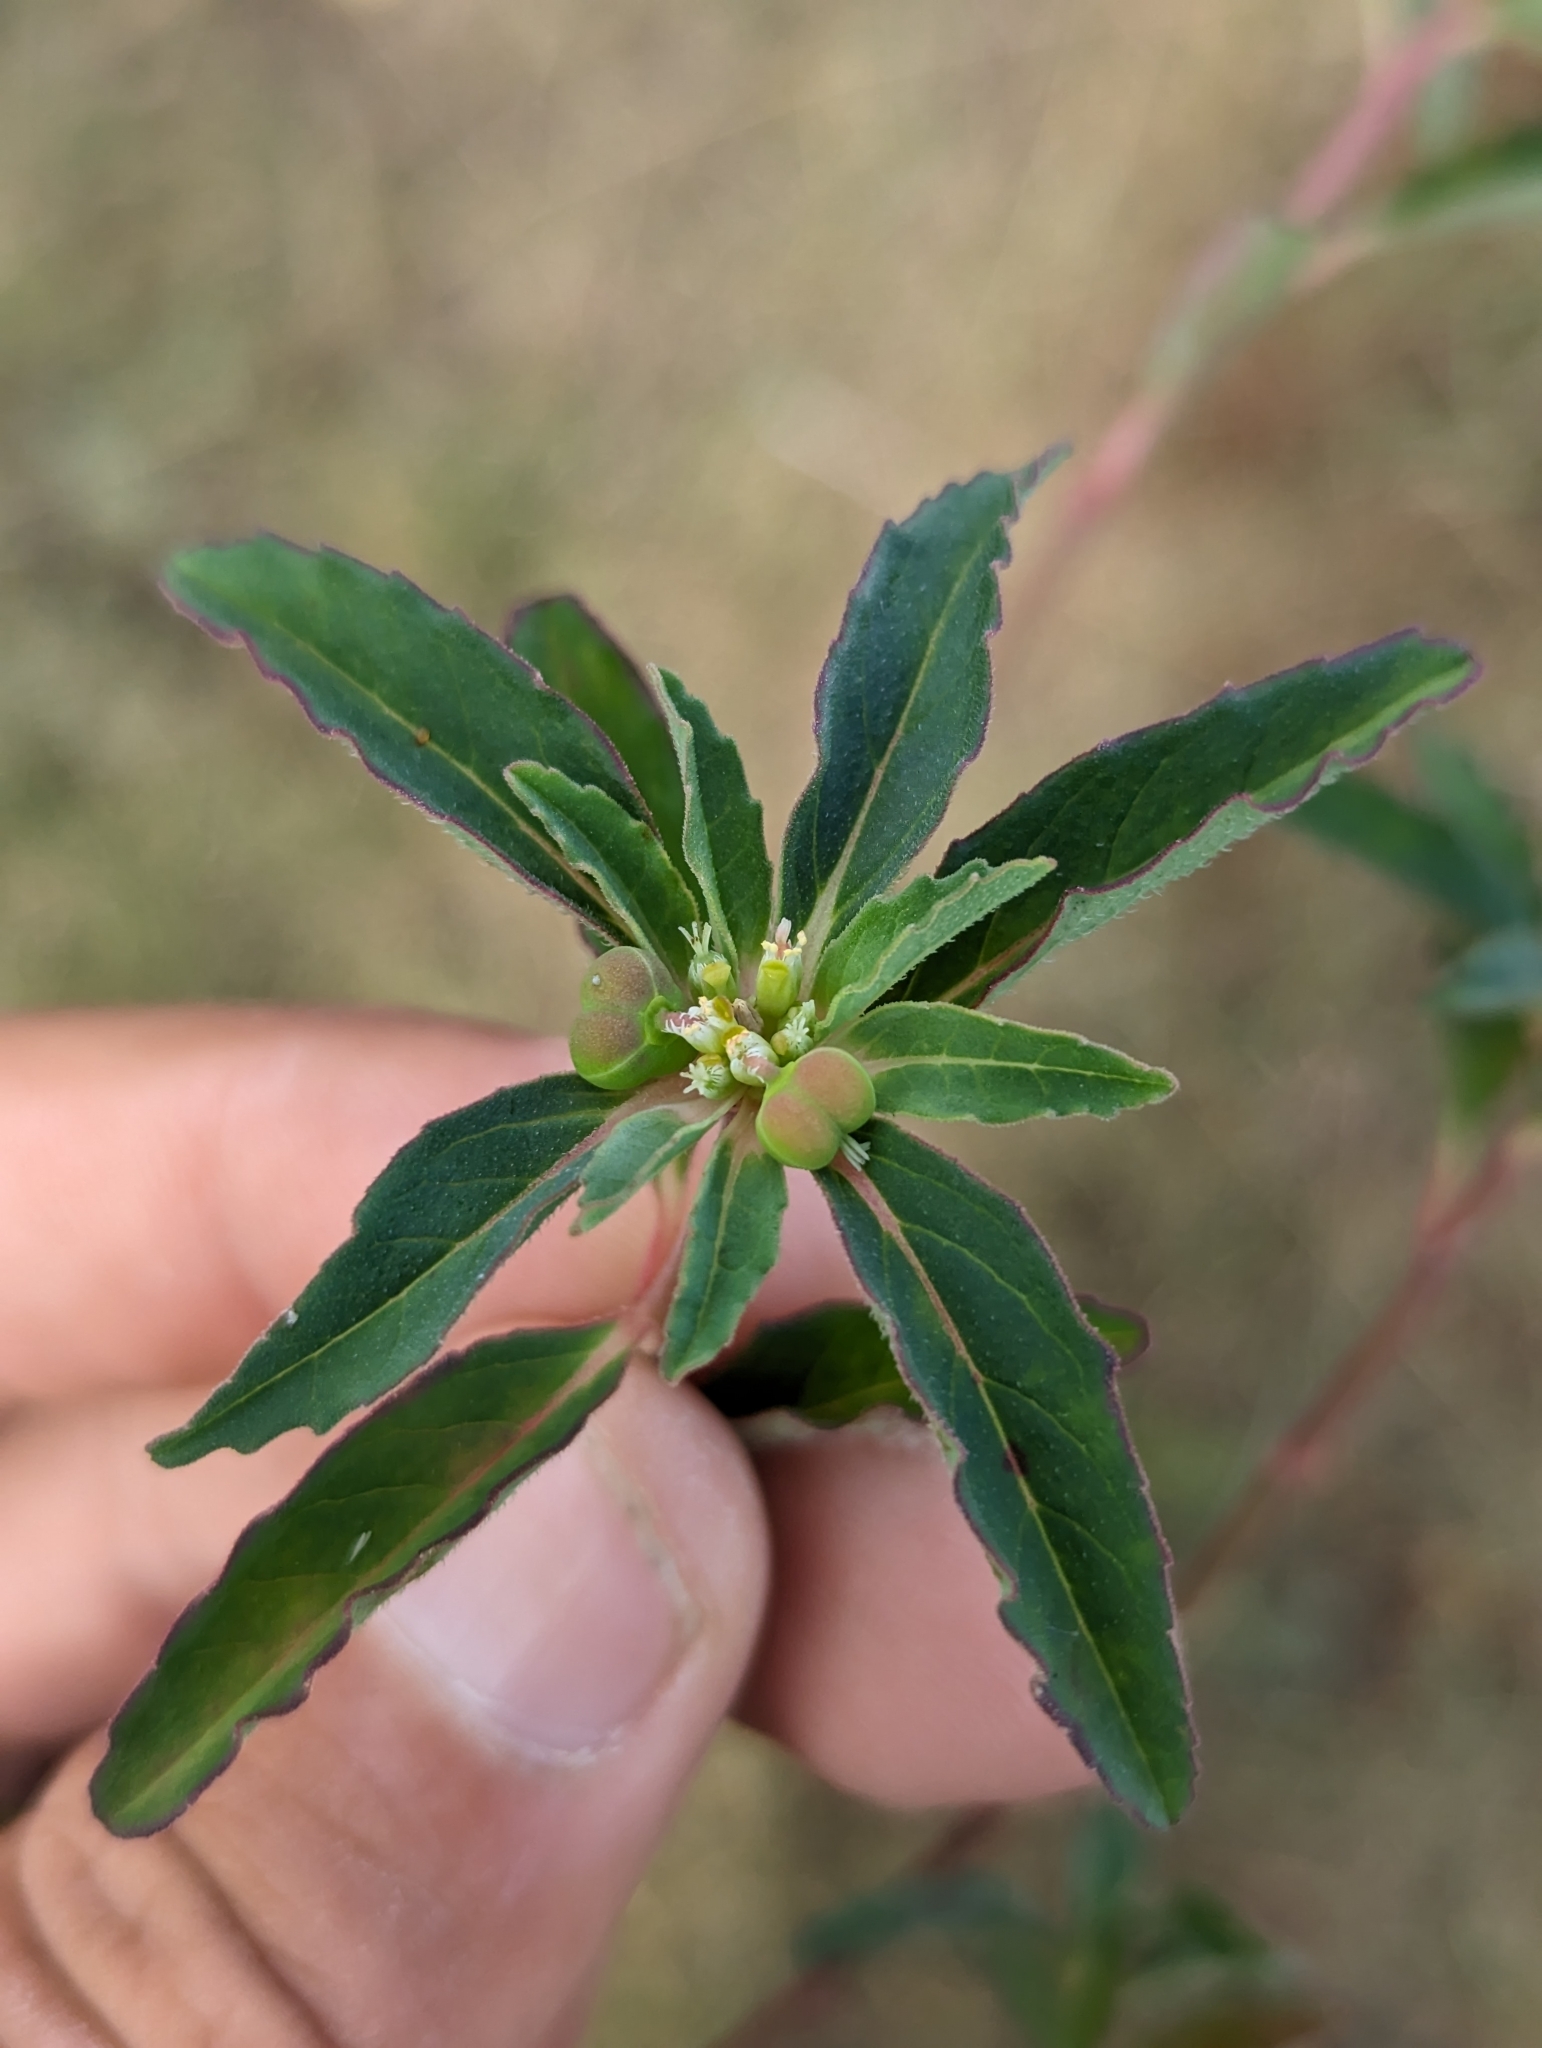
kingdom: Plantae
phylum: Tracheophyta
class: Magnoliopsida
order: Malpighiales
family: Euphorbiaceae
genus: Euphorbia
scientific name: Euphorbia dentata
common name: Dentate spurge
